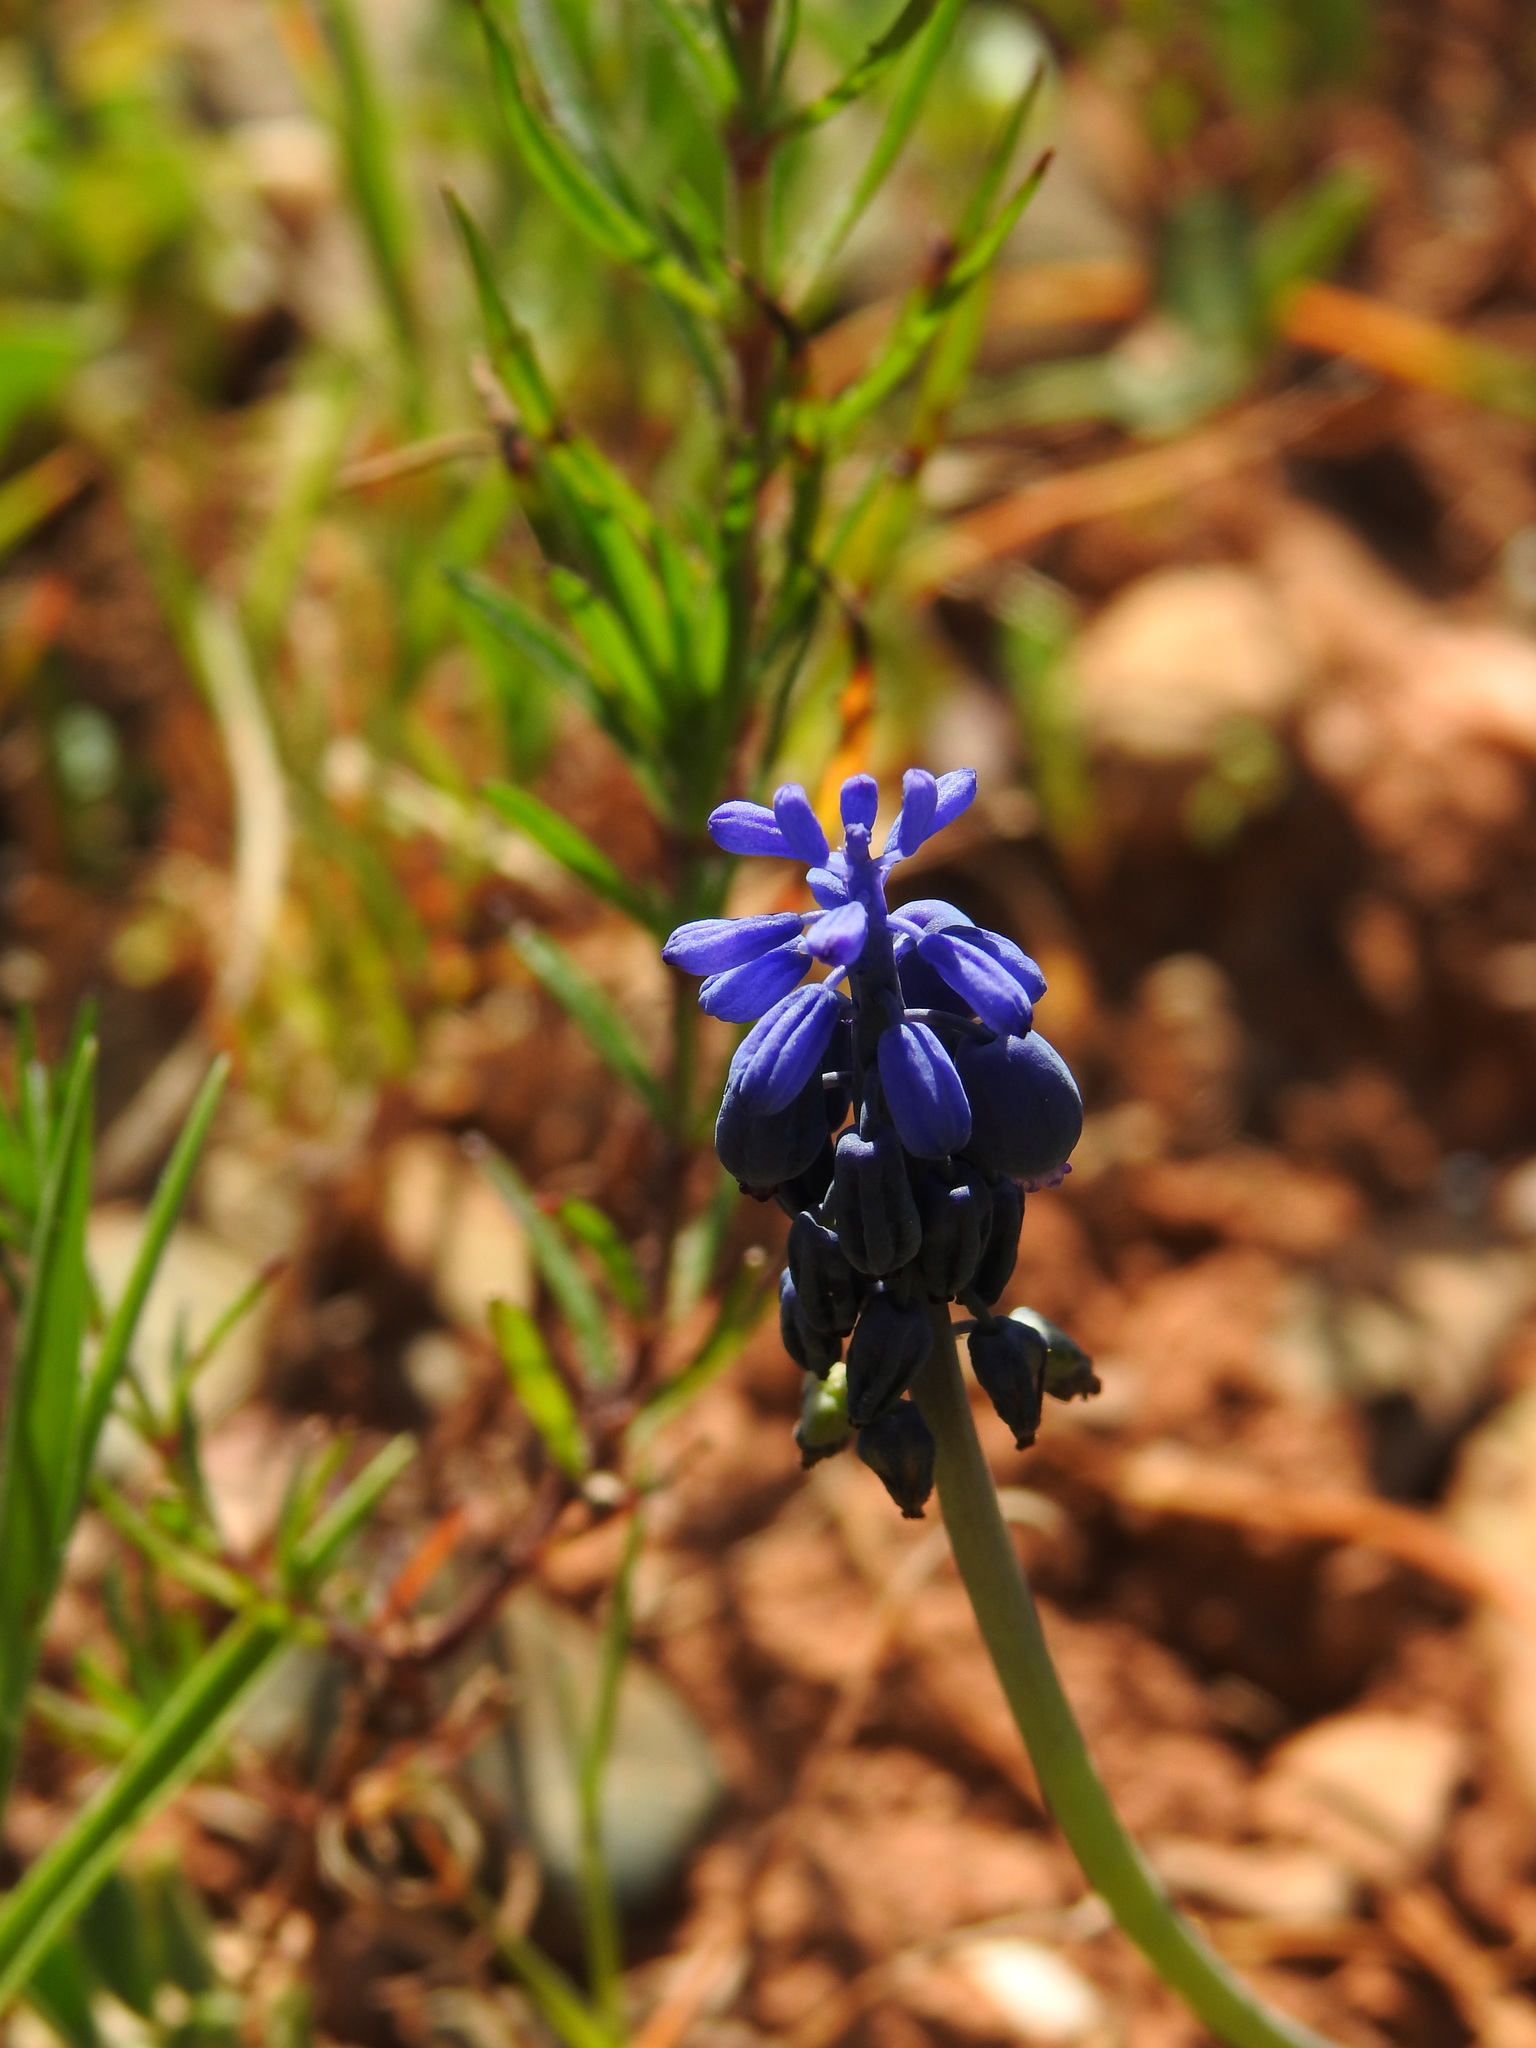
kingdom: Plantae
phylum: Tracheophyta
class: Liliopsida
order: Asparagales
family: Asparagaceae
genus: Muscari
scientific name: Muscari neglectum
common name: Grape-hyacinth
